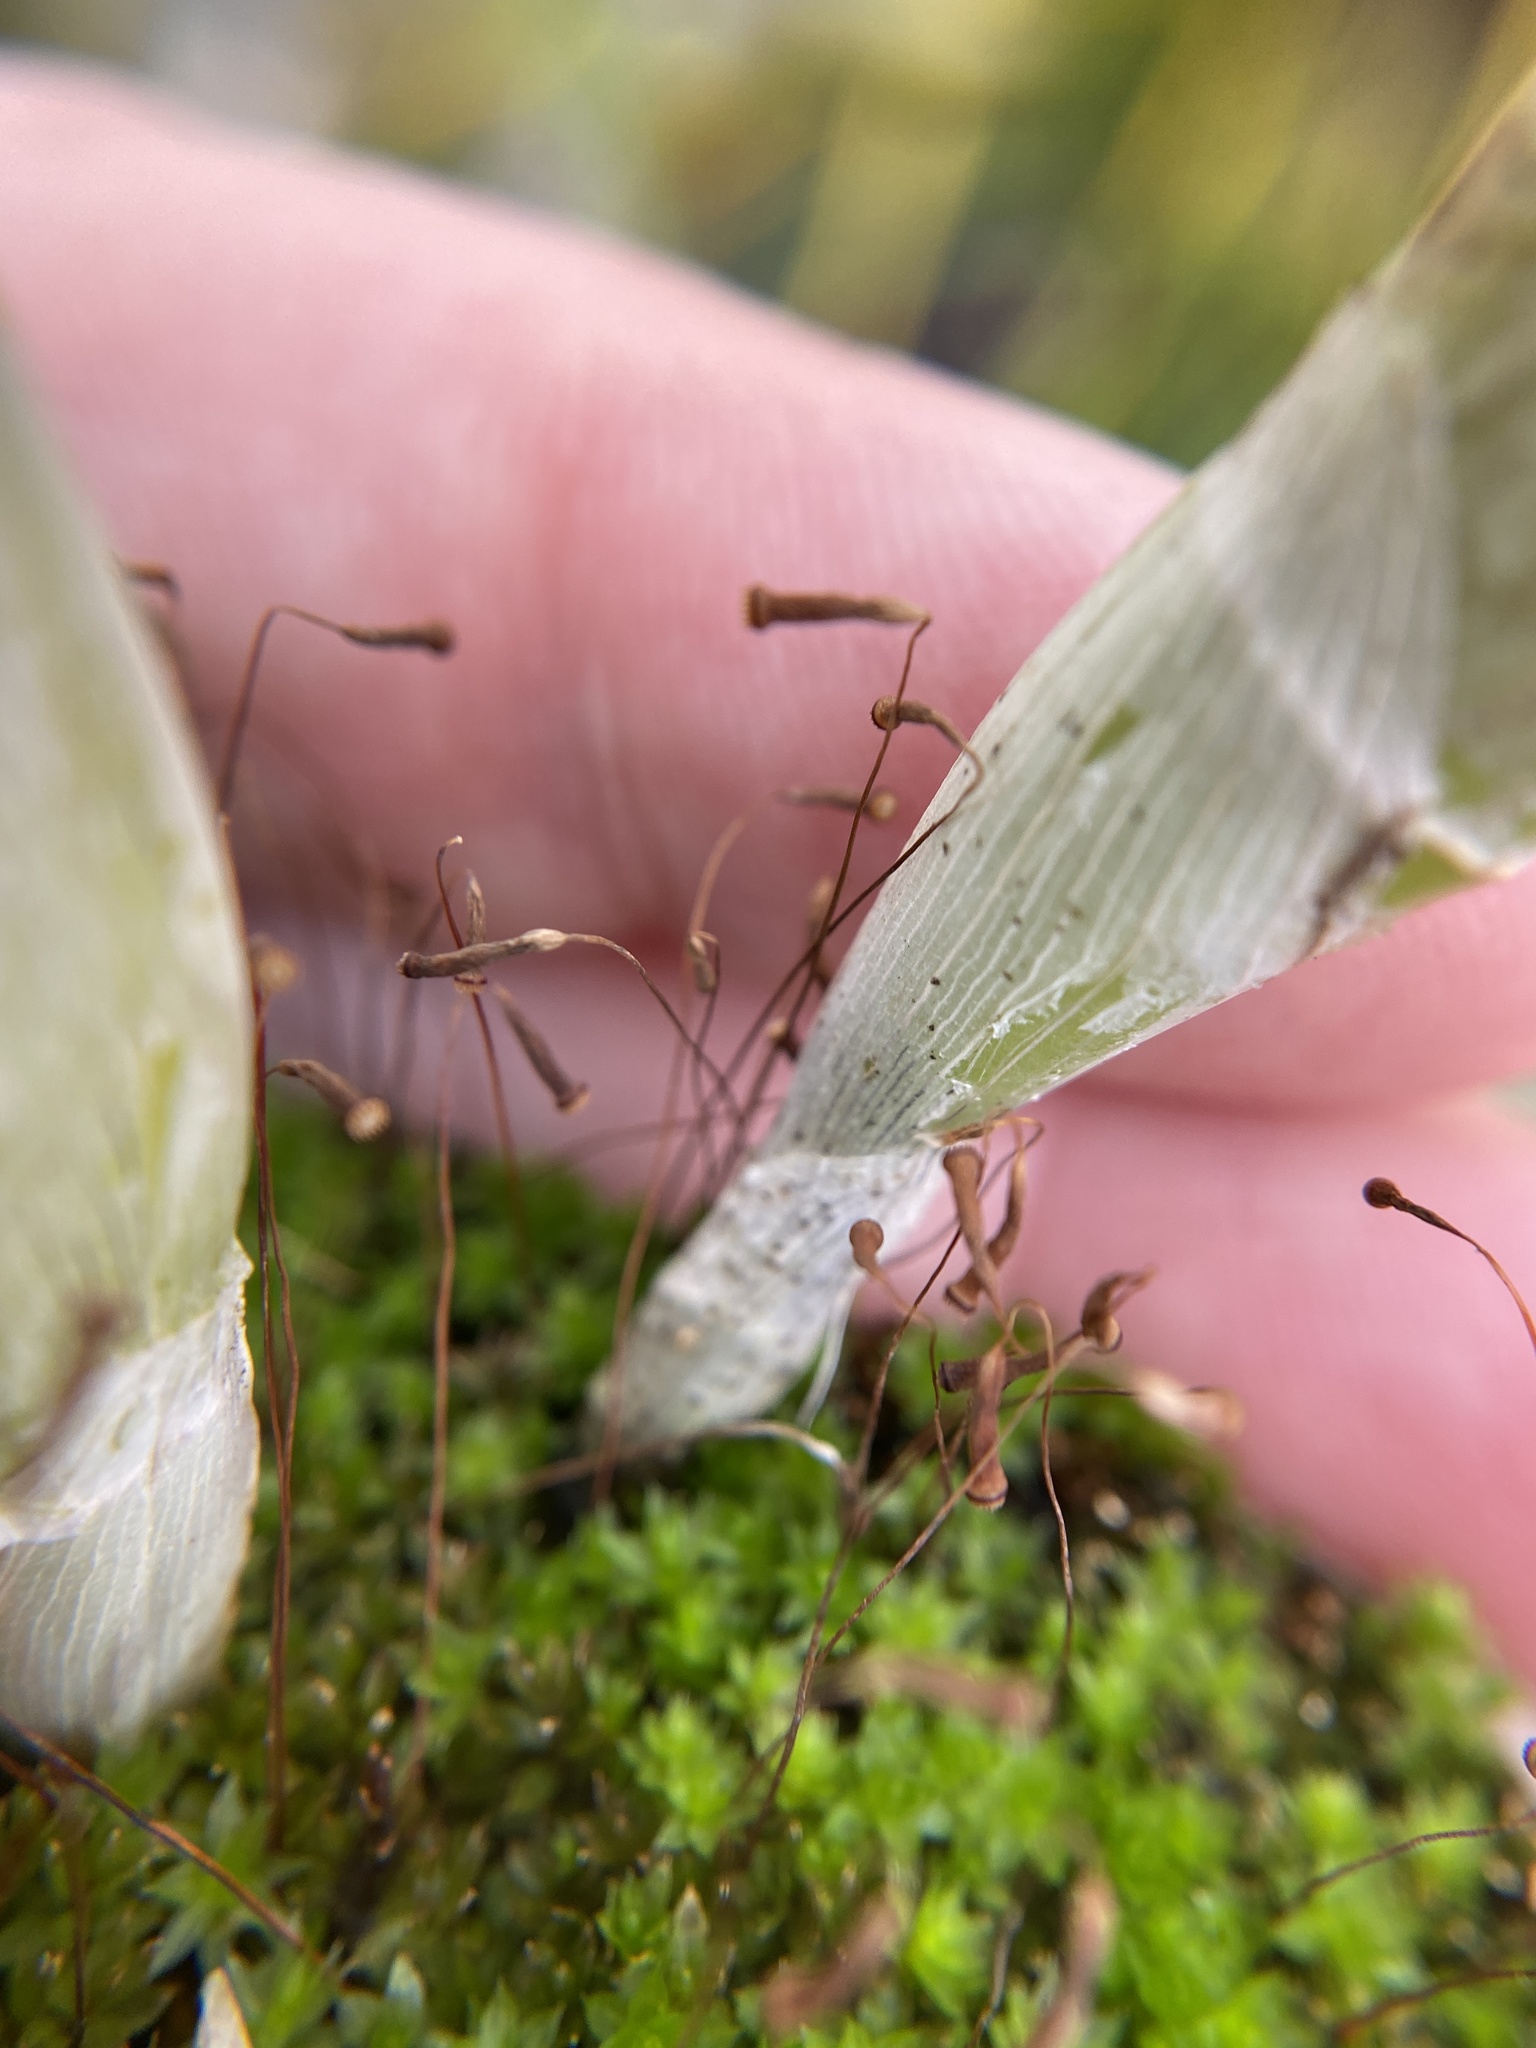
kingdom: Plantae
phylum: Bryophyta
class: Bryopsida
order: Bryales
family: Bryaceae
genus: Rosulabryum
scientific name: Rosulabryum capillare
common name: Capillary thread-moss
